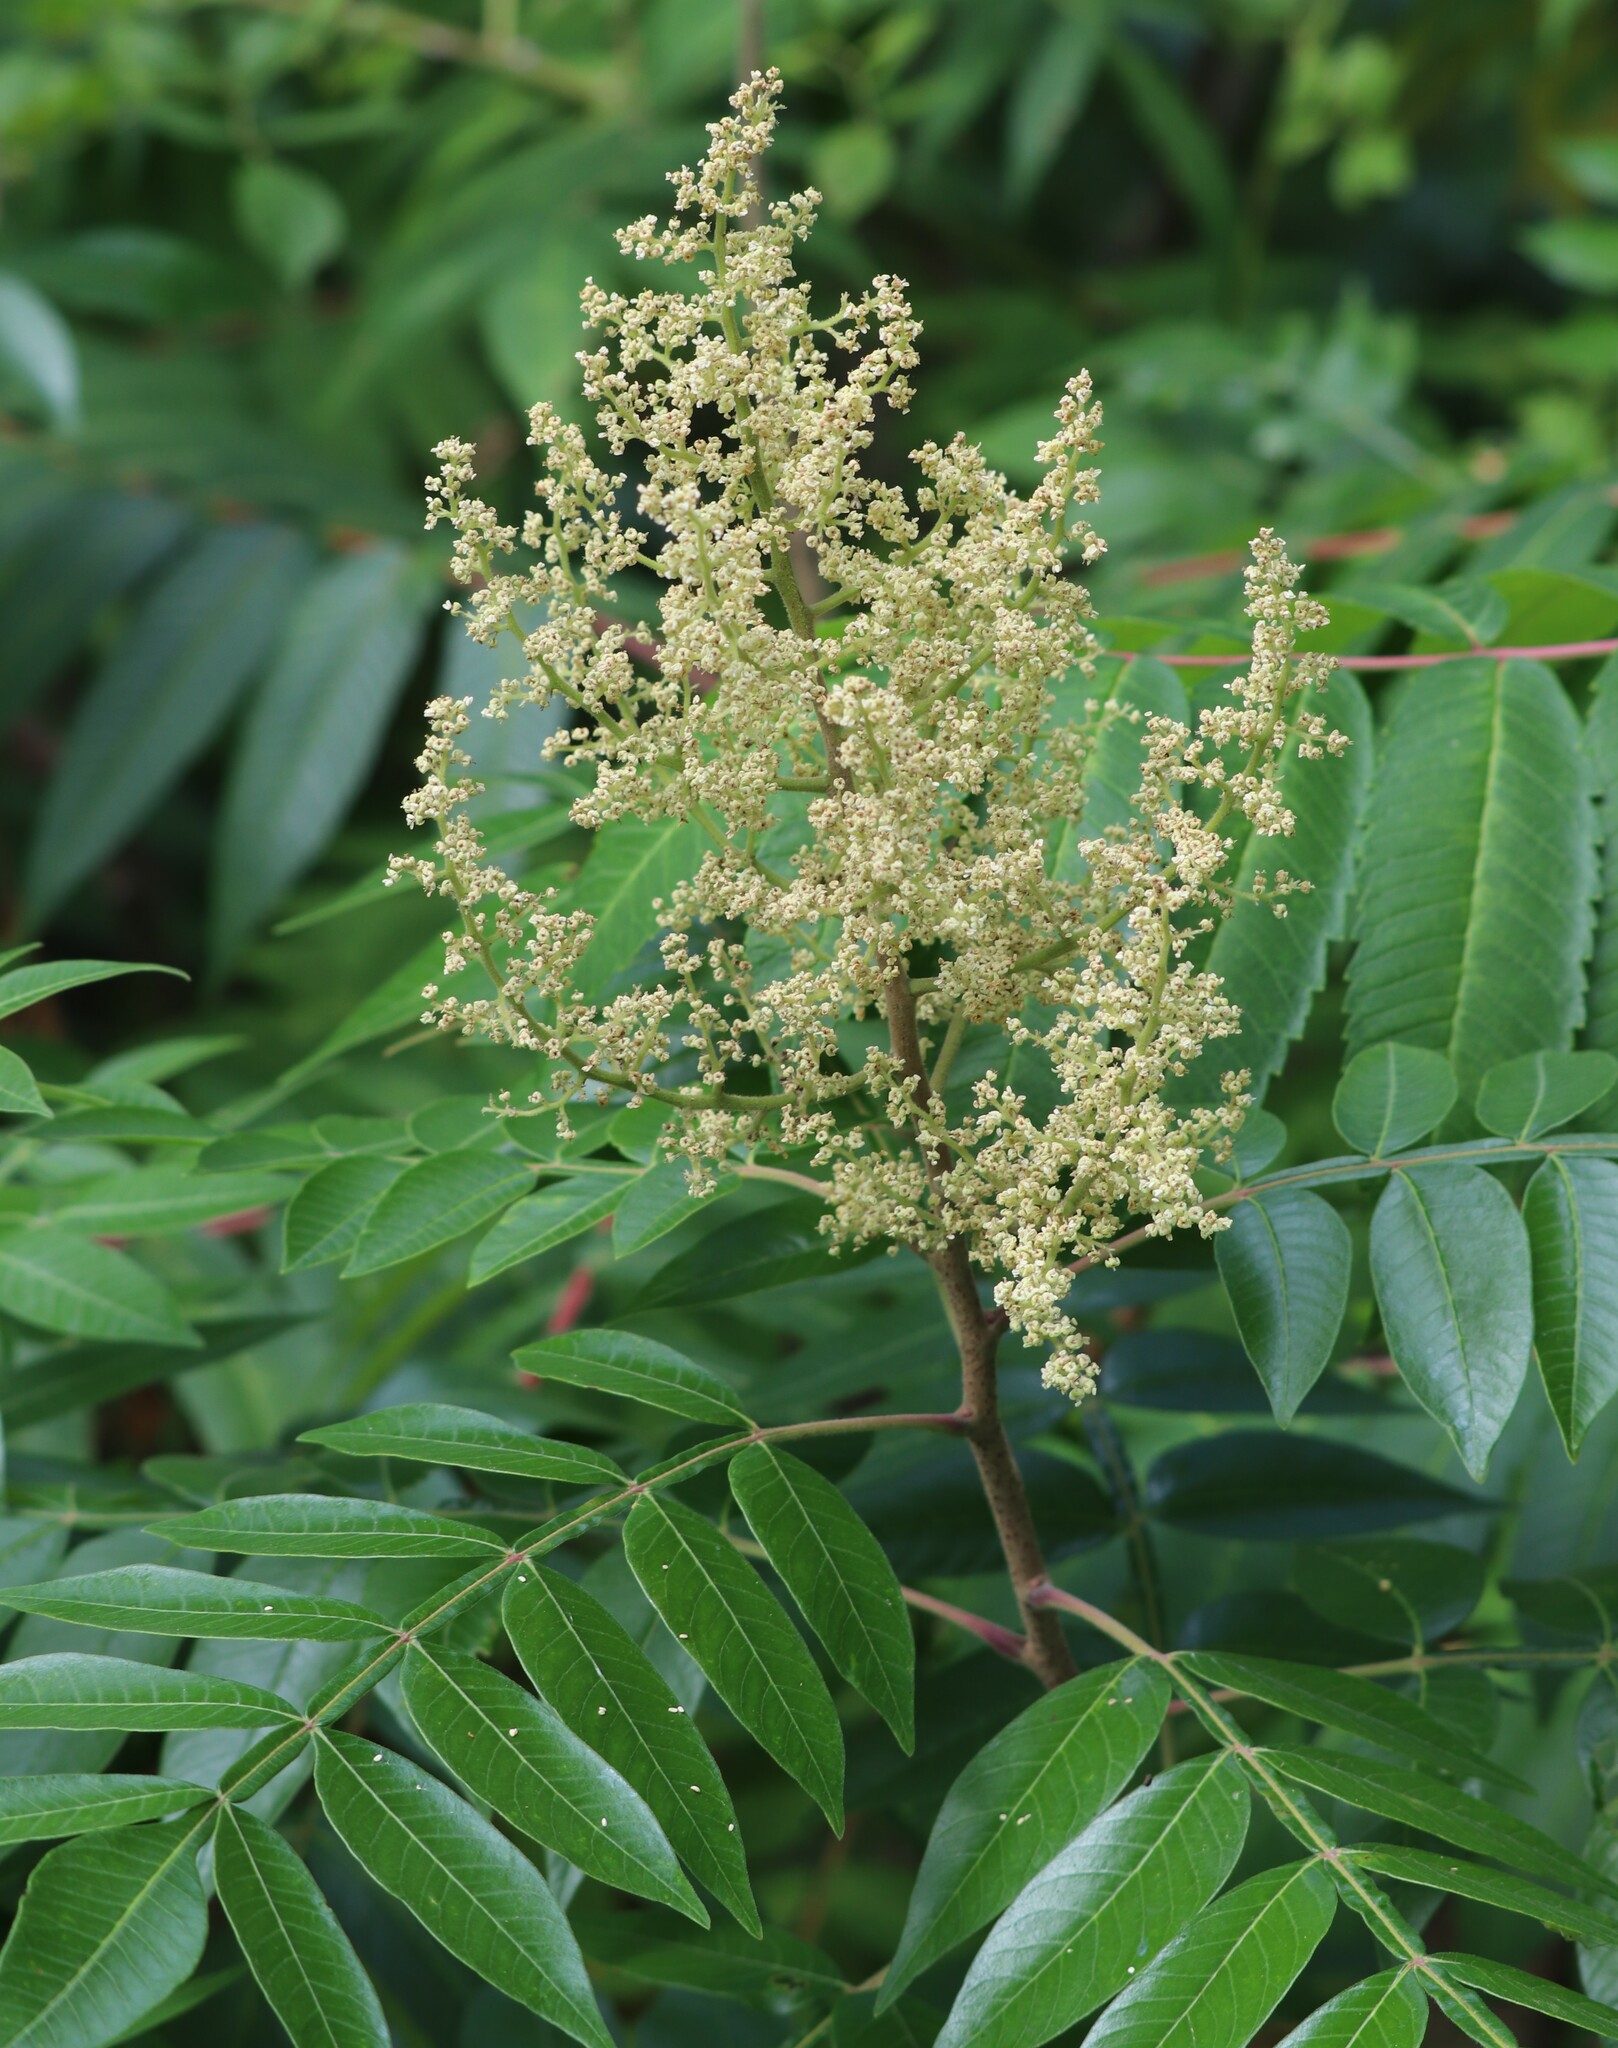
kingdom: Plantae
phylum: Tracheophyta
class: Magnoliopsida
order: Sapindales
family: Anacardiaceae
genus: Rhus
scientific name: Rhus copallina
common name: Shining sumac
